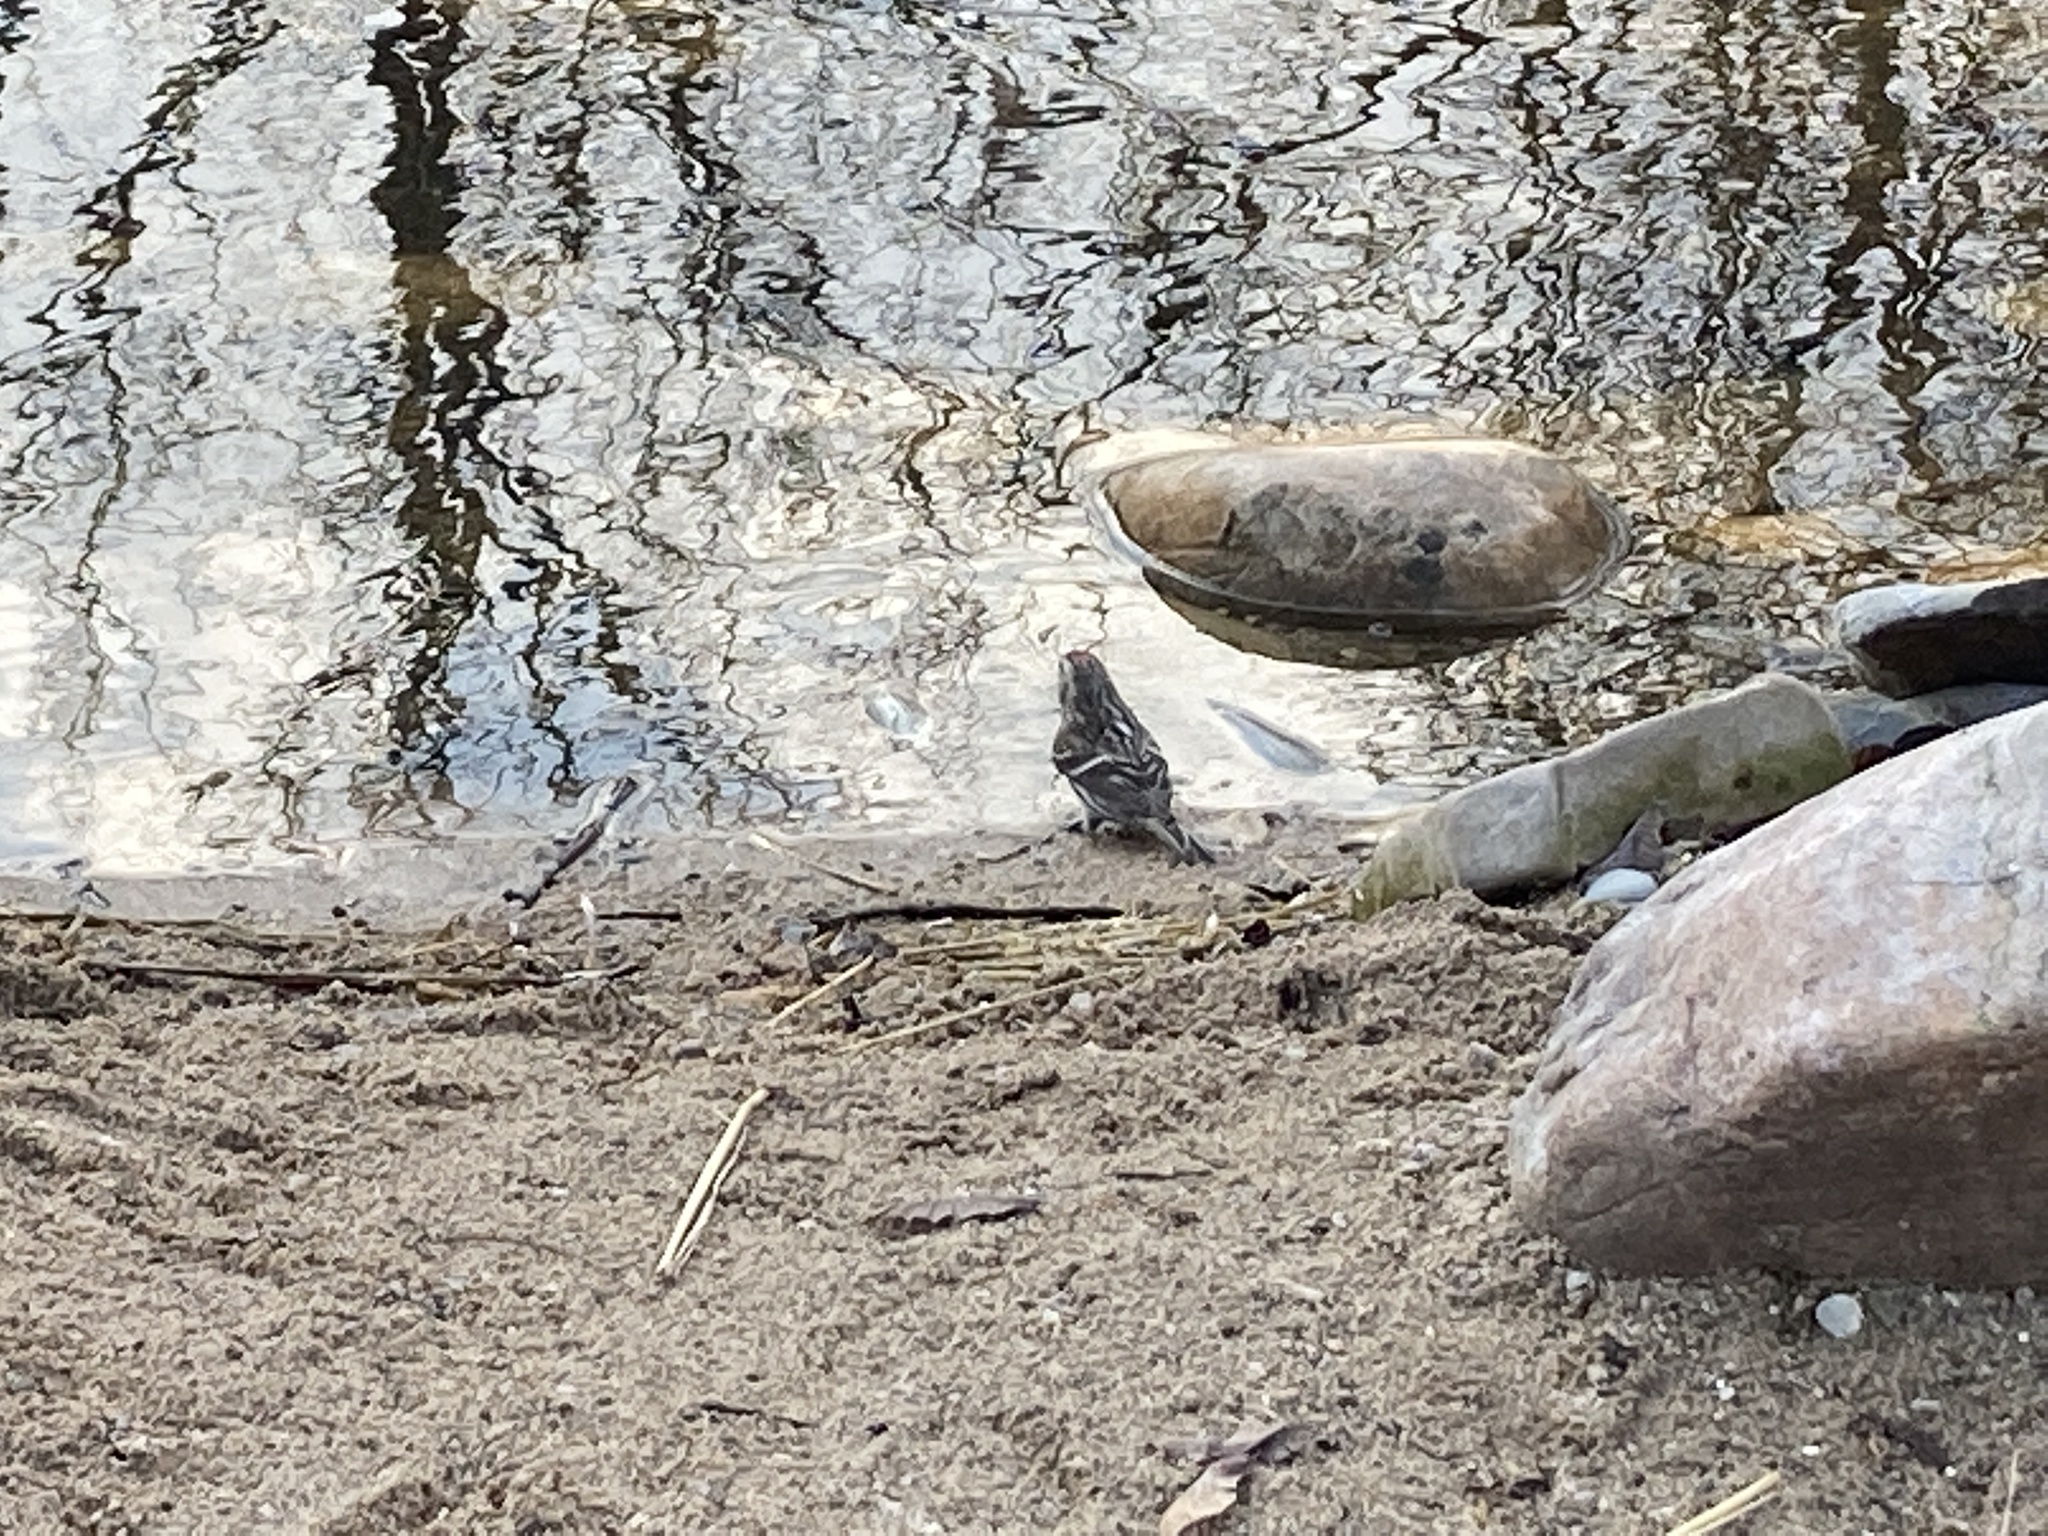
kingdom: Animalia
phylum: Chordata
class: Aves
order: Passeriformes
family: Fringillidae
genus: Acanthis
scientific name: Acanthis flammea
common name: Common redpoll
